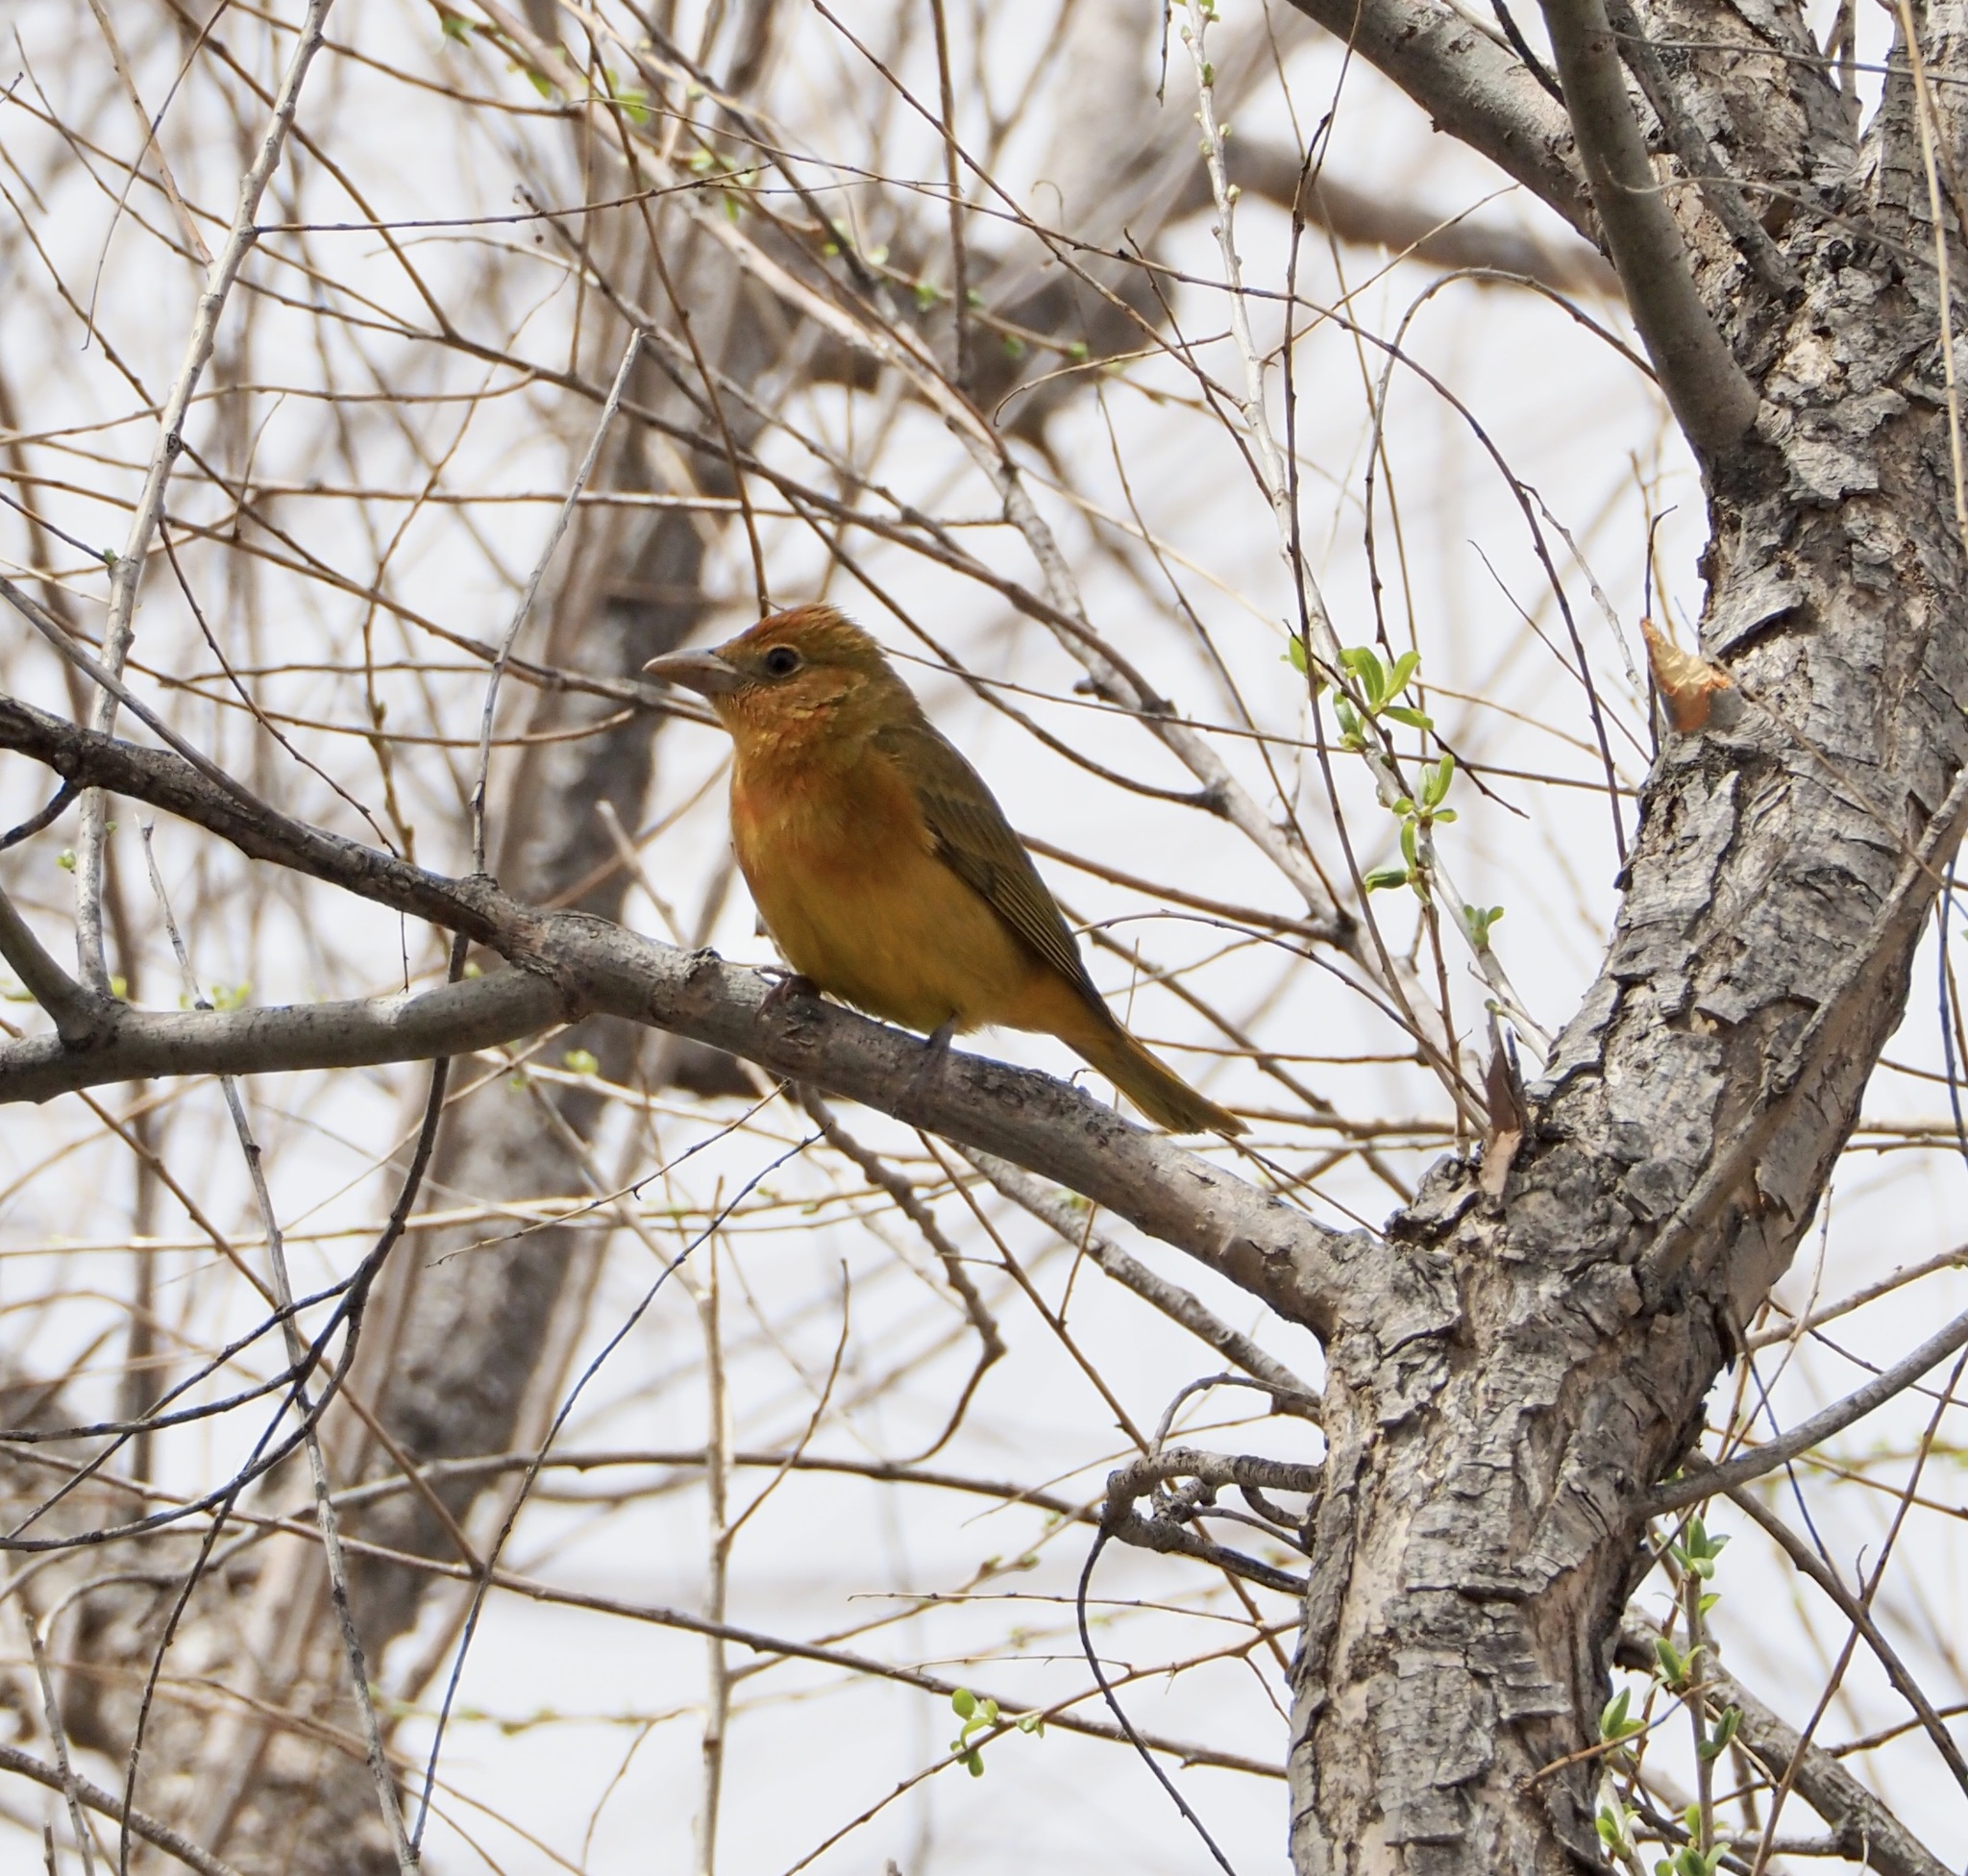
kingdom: Animalia
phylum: Chordata
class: Aves
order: Passeriformes
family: Cardinalidae
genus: Piranga
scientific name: Piranga rubra
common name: Summer tanager
